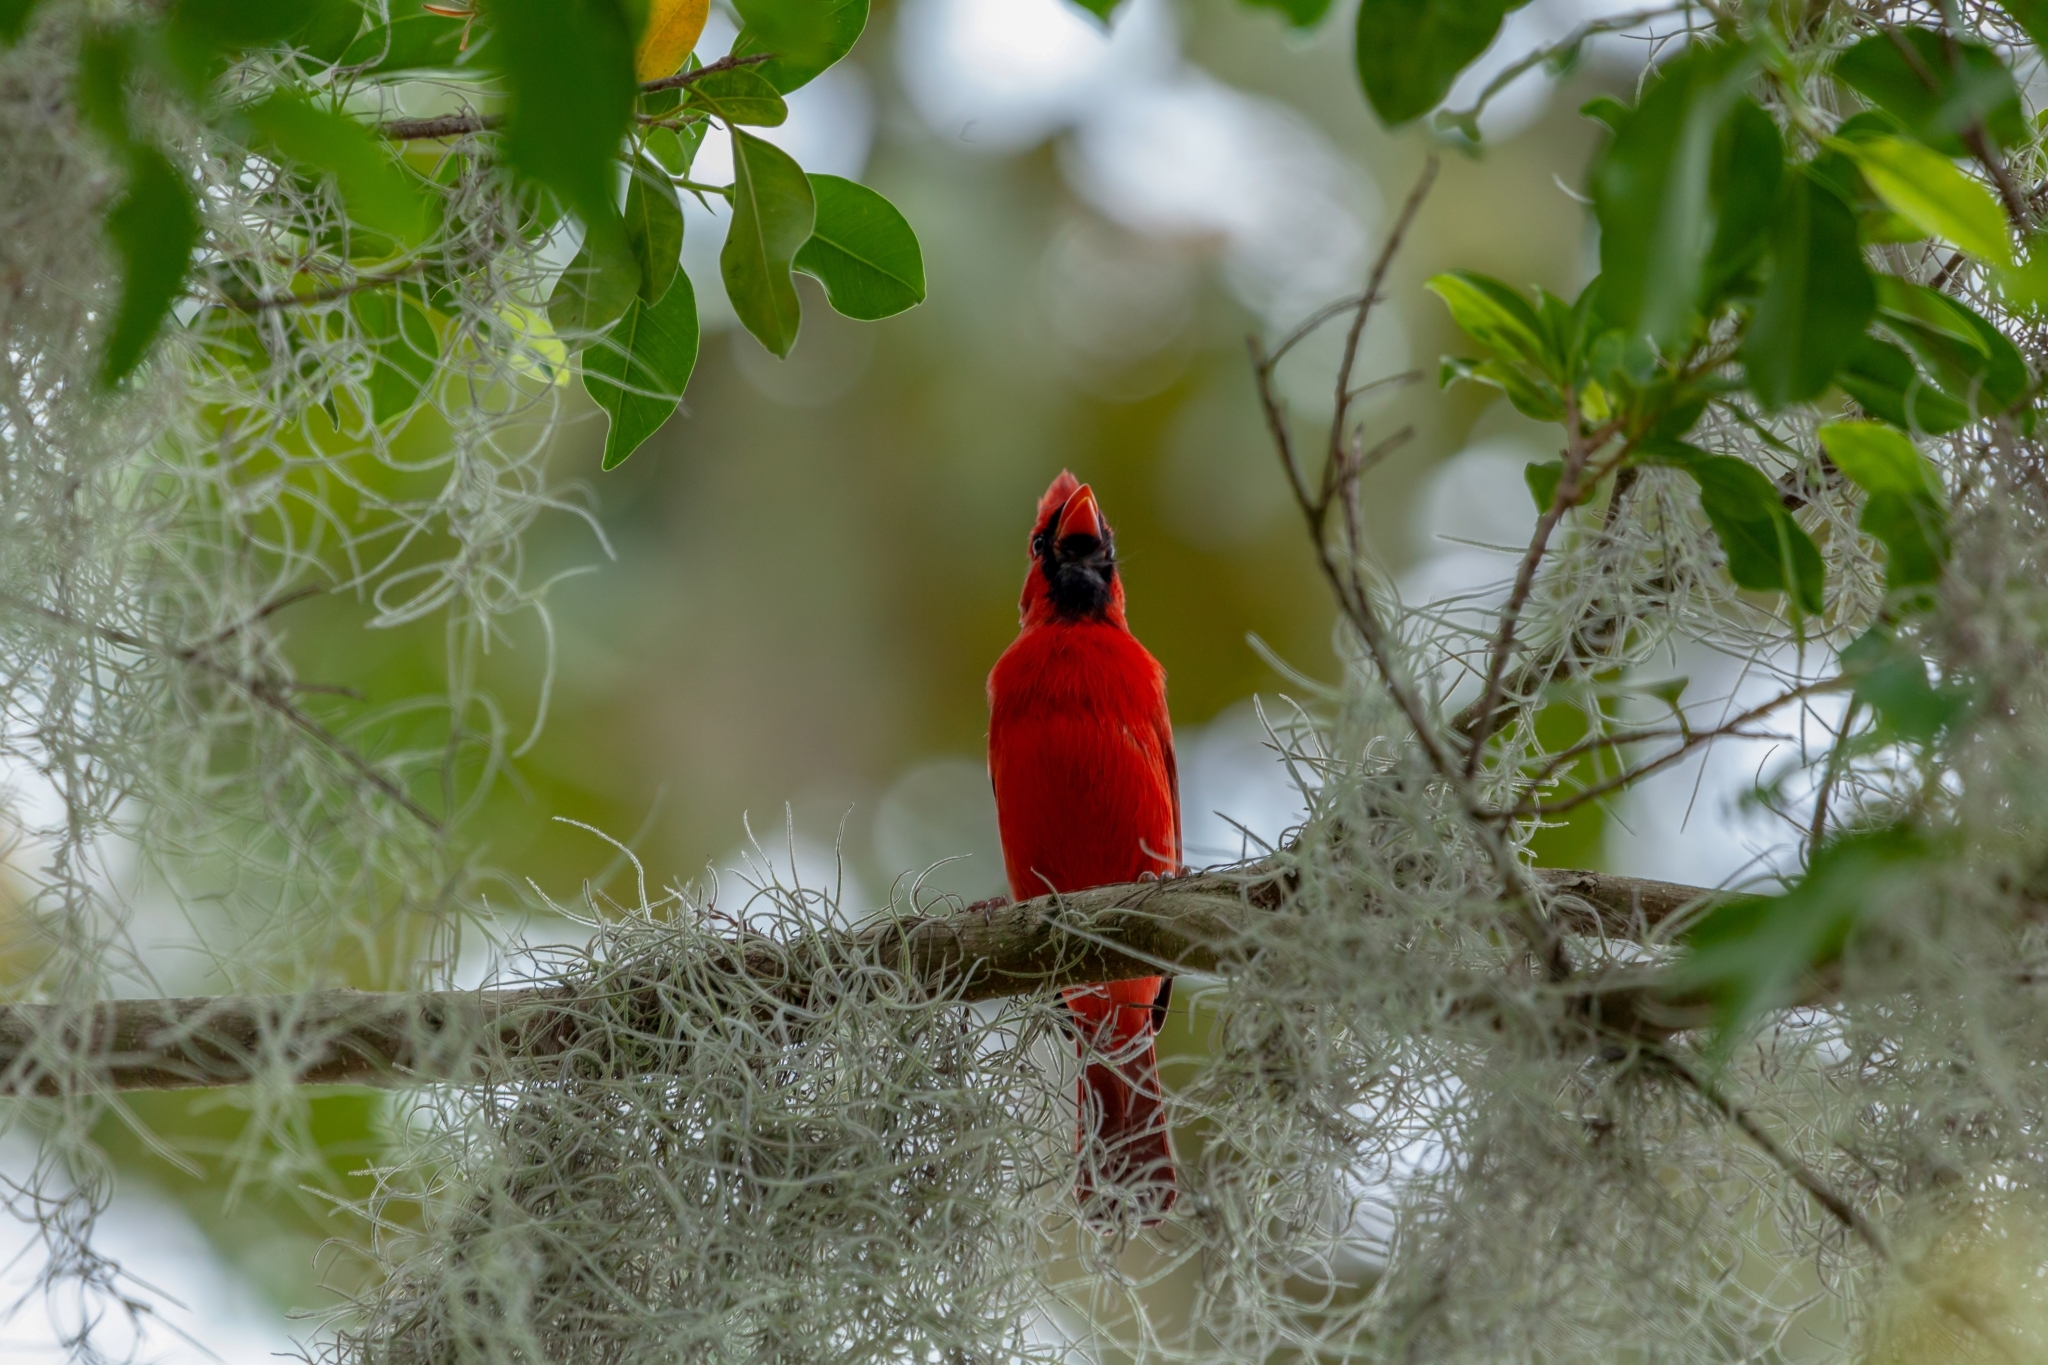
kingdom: Animalia
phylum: Chordata
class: Aves
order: Passeriformes
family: Cardinalidae
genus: Cardinalis
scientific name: Cardinalis cardinalis
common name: Northern cardinal
